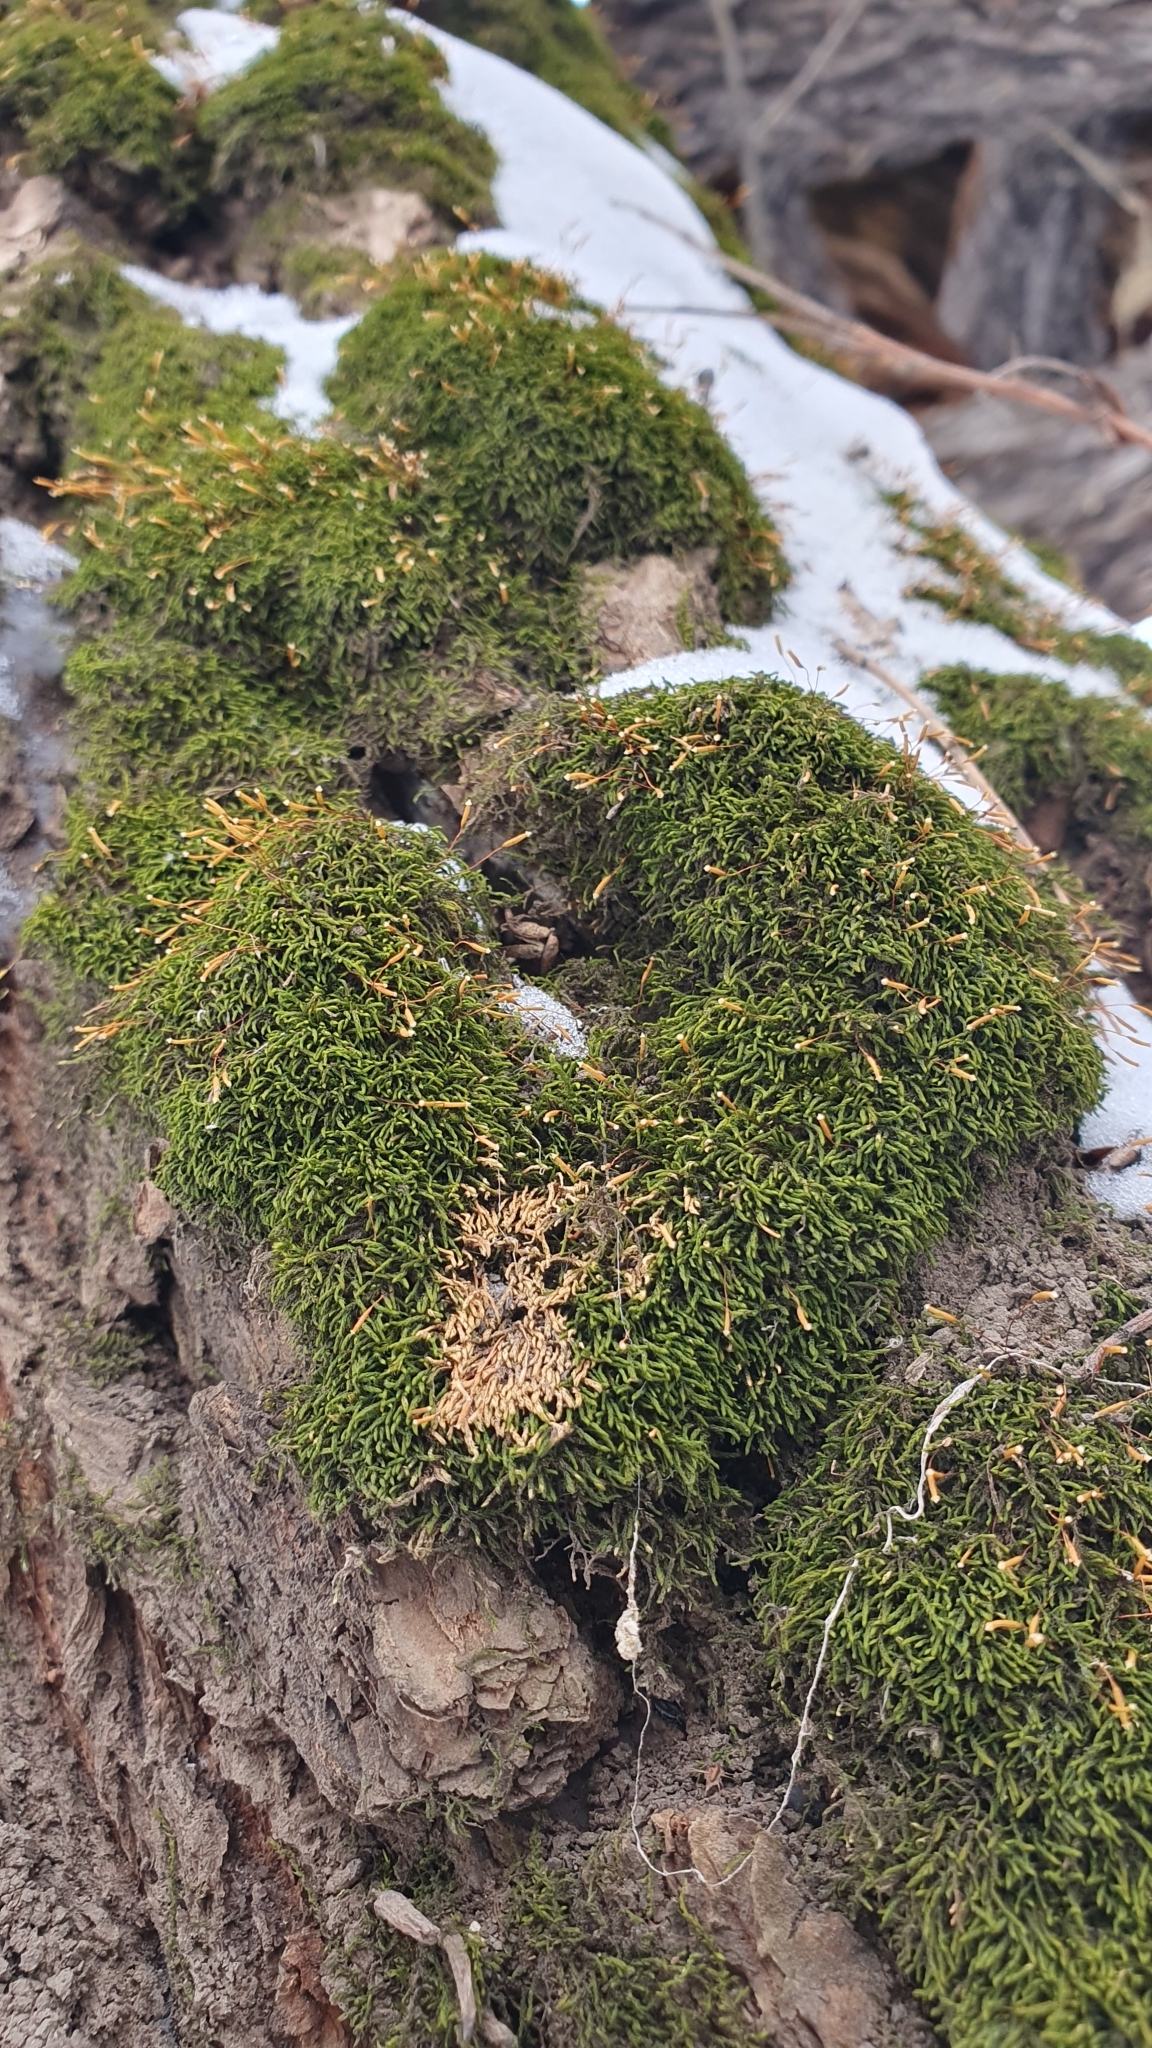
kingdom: Plantae
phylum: Bryophyta
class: Bryopsida
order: Hypnales
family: Leskeaceae
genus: Leskea
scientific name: Leskea polycarpa
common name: Many-fruited leske's moss
